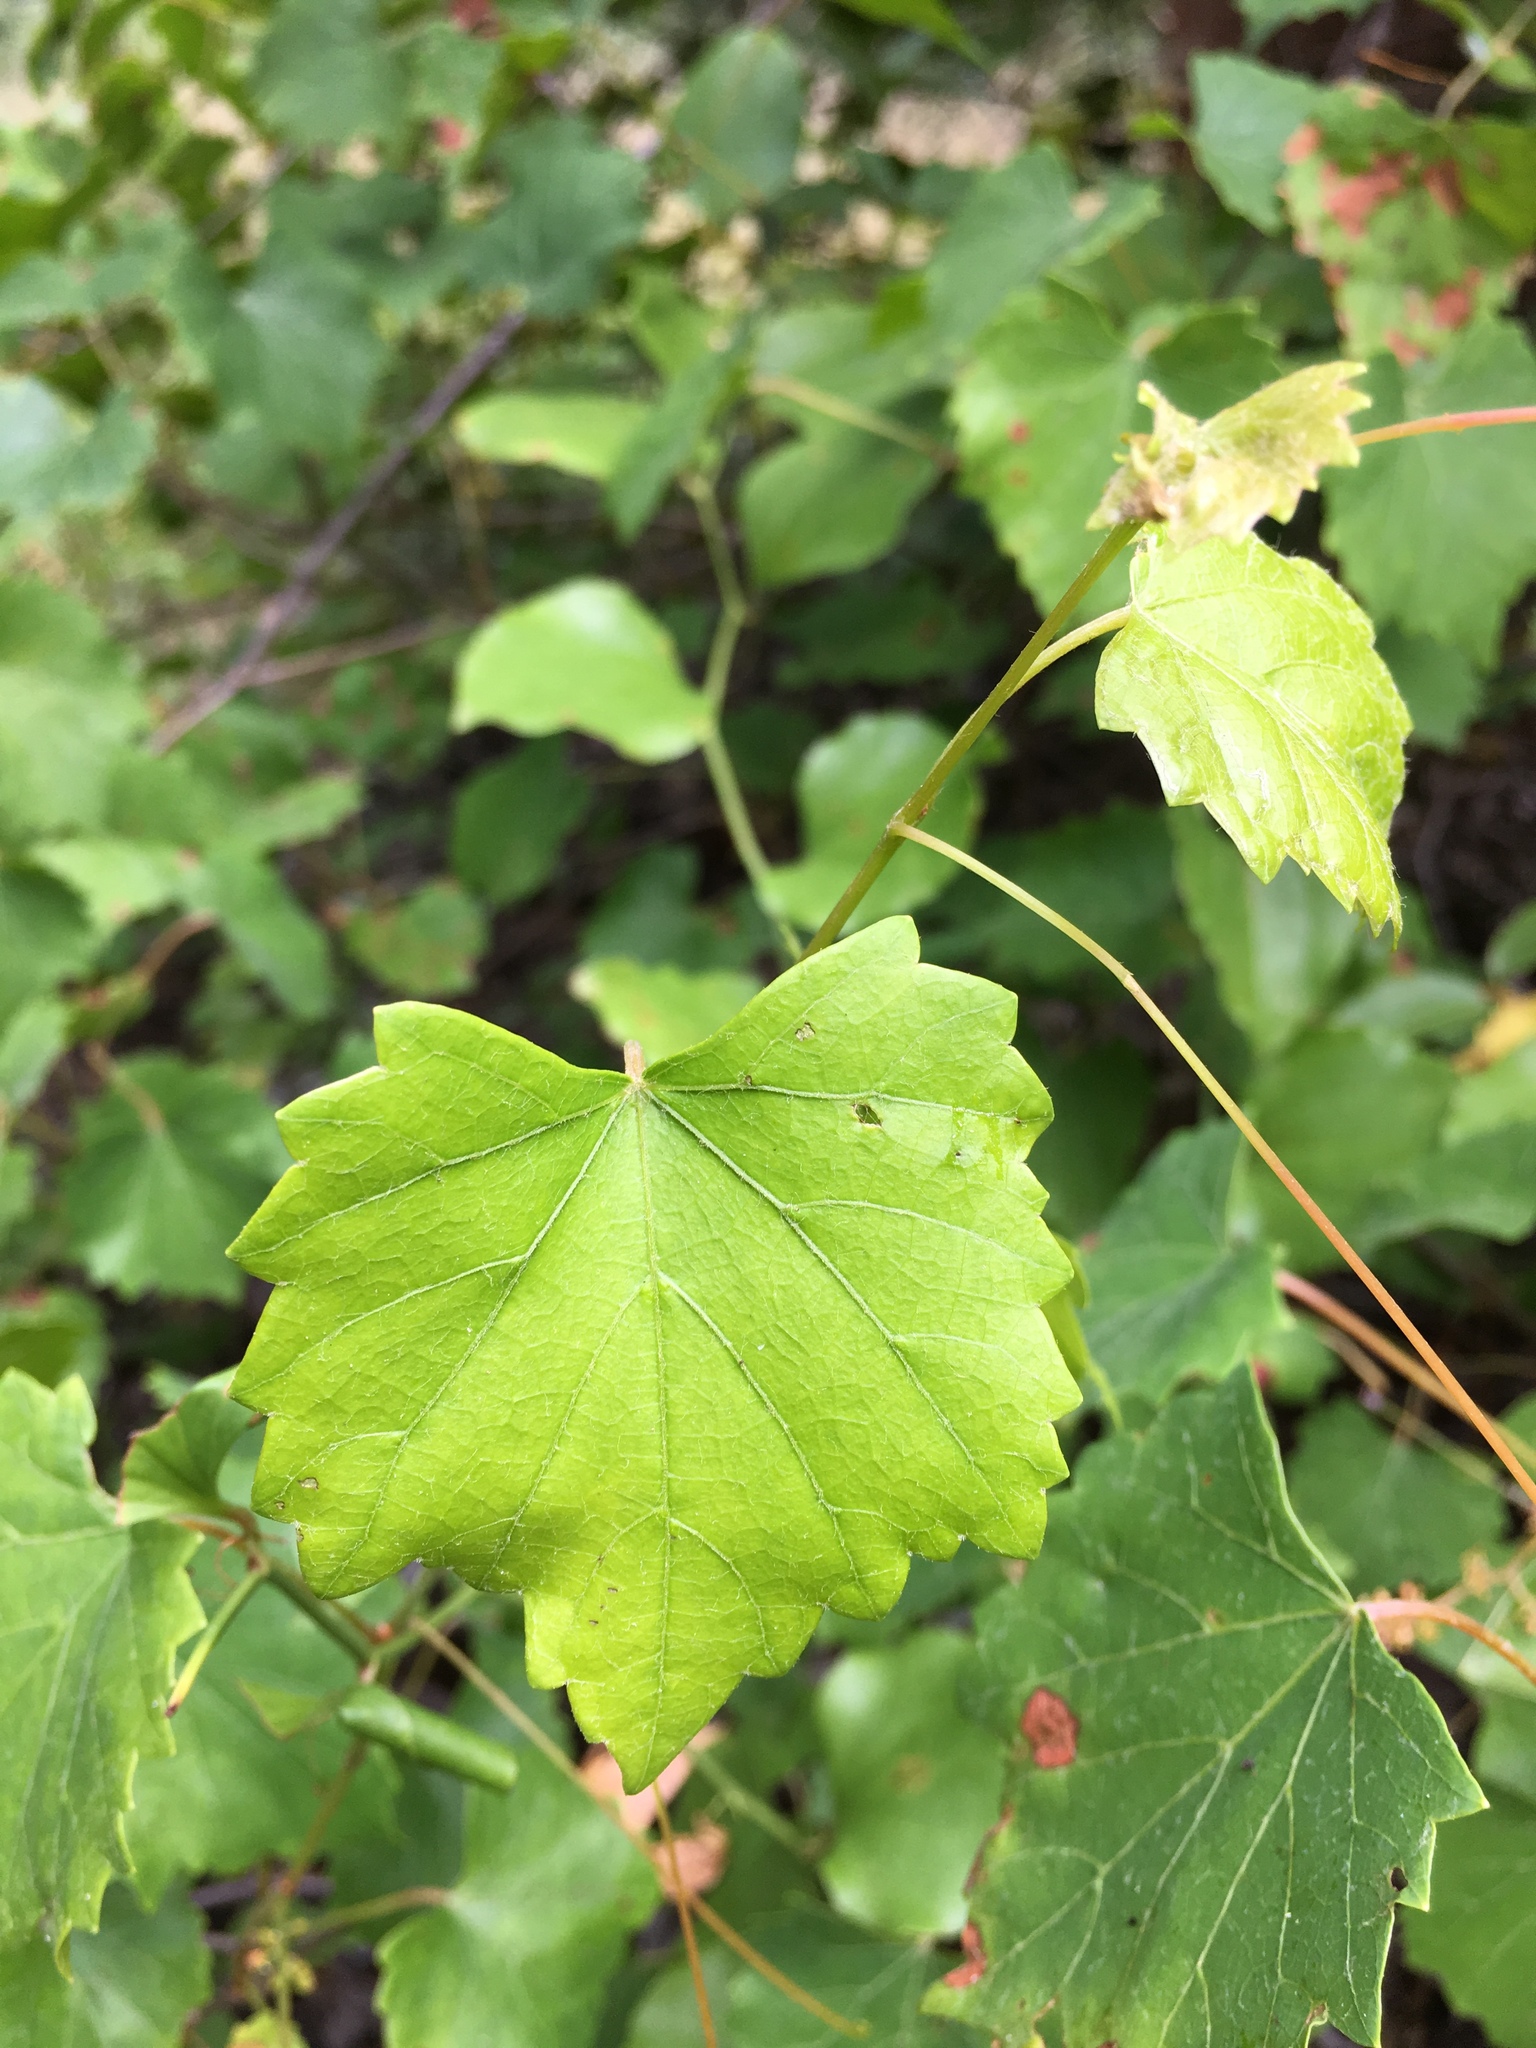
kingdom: Plantae
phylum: Tracheophyta
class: Magnoliopsida
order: Vitales
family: Vitaceae
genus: Vitis
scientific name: Vitis rotundifolia
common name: Muscadine grape
